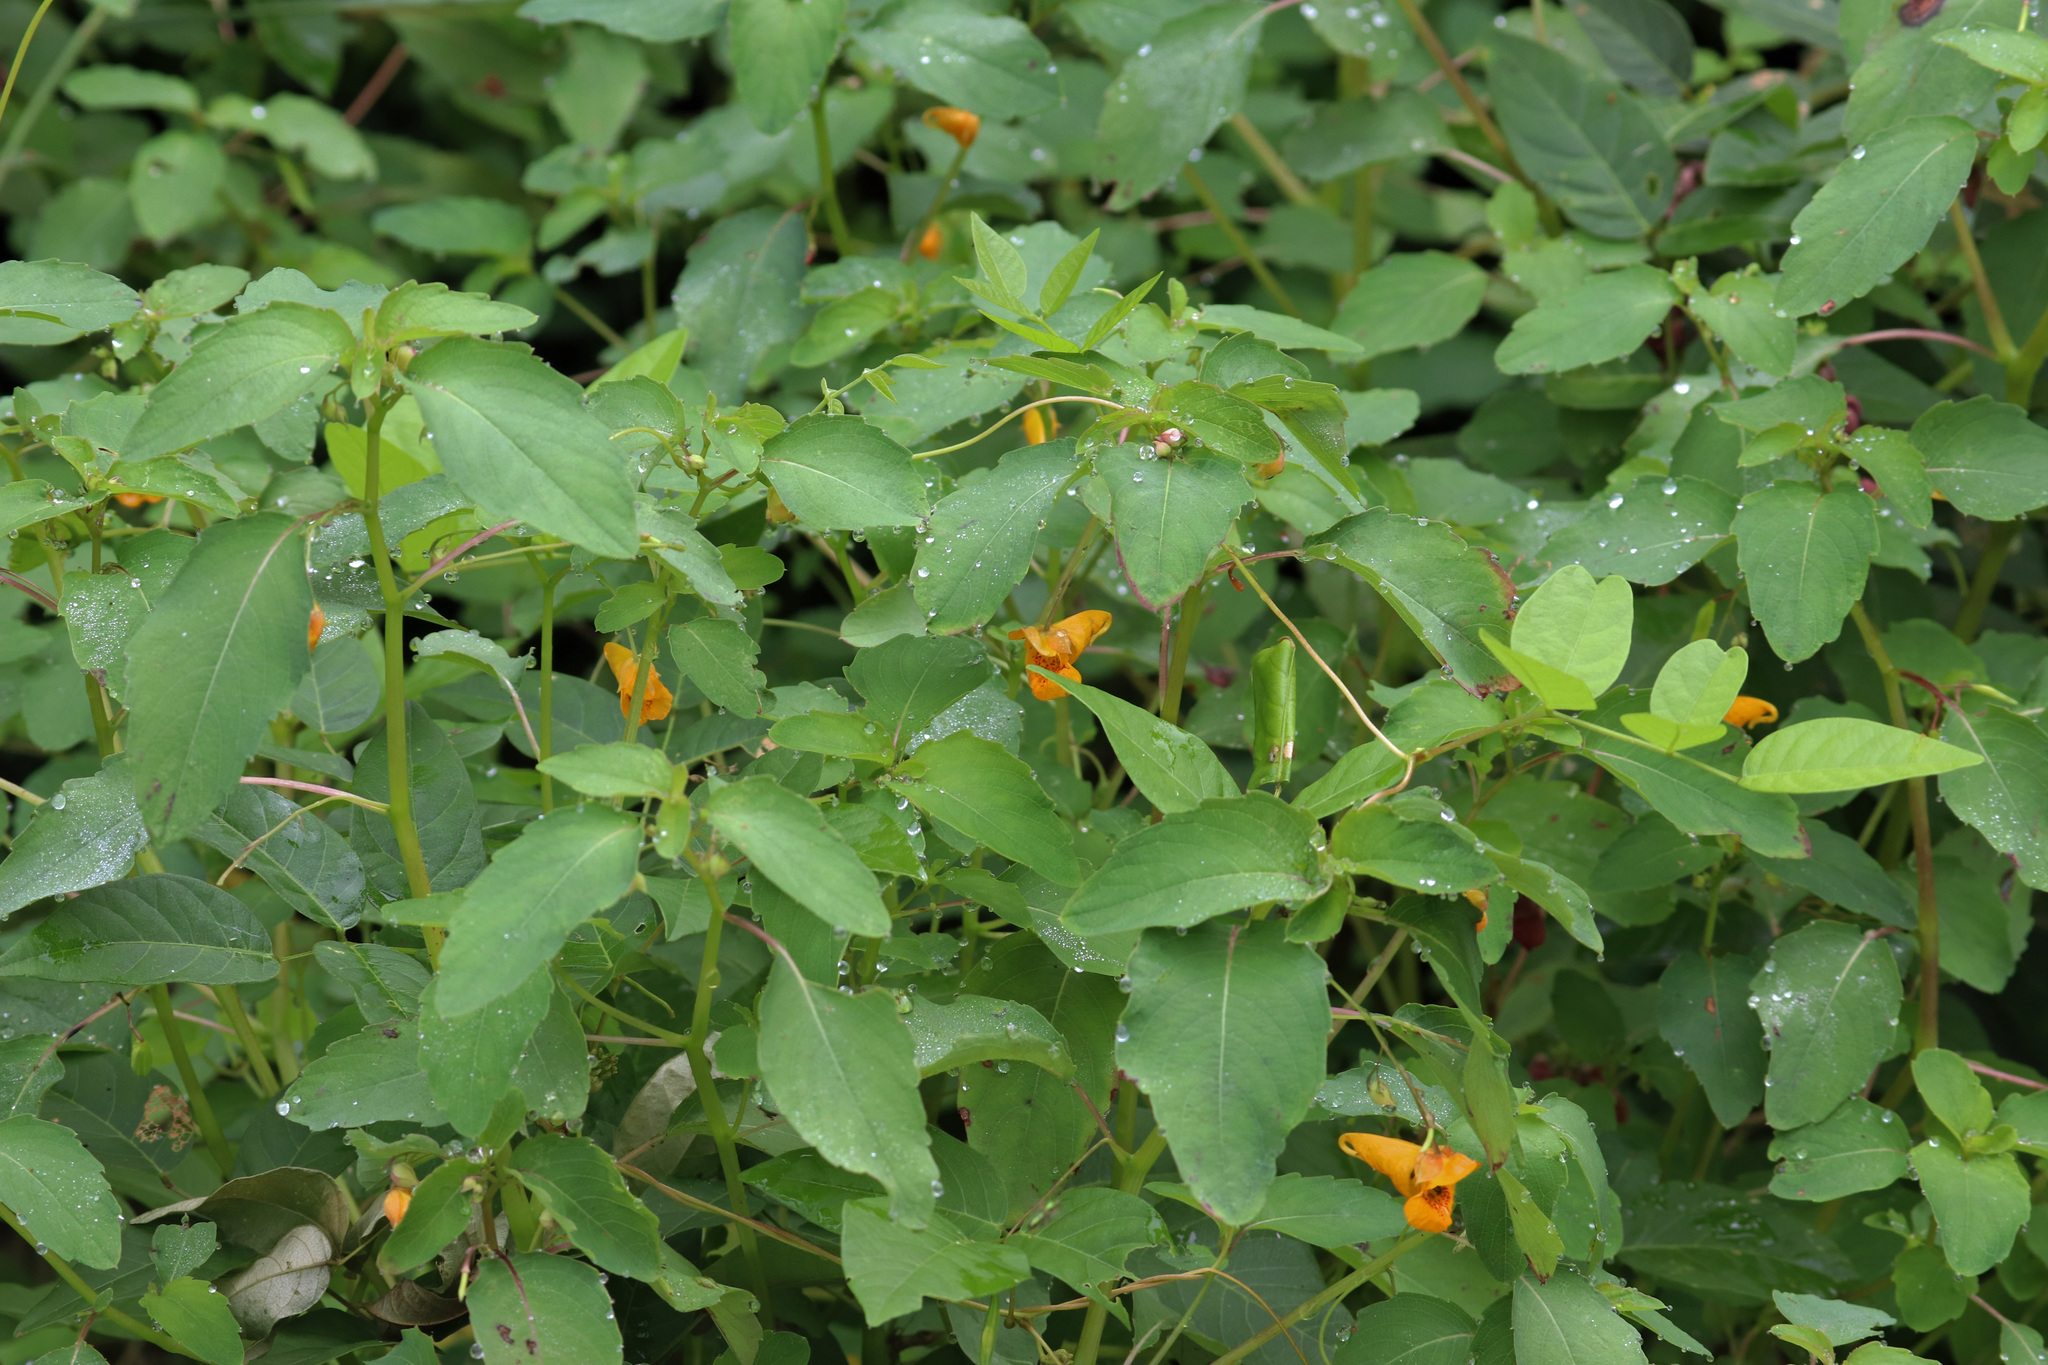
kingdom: Plantae
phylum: Tracheophyta
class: Magnoliopsida
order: Ericales
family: Balsaminaceae
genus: Impatiens
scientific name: Impatiens capensis
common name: Orange balsam
